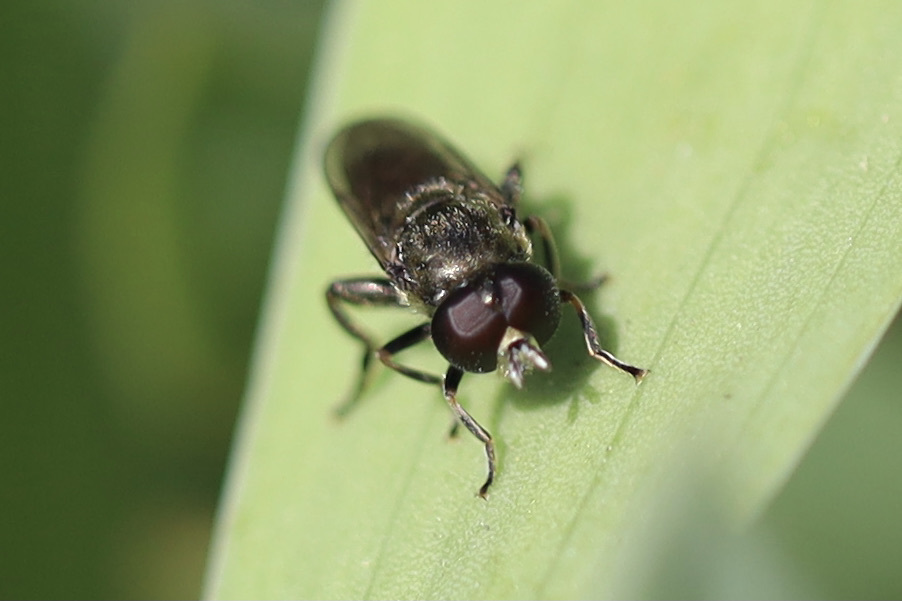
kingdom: Animalia
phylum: Arthropoda
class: Insecta
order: Diptera
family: Syrphidae
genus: Eumerus
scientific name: Eumerus
